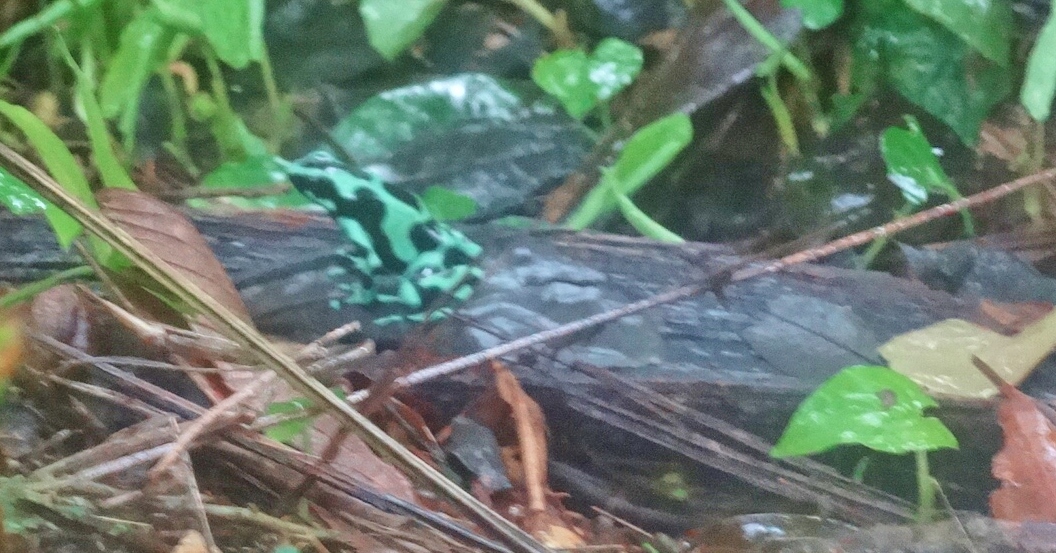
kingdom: Animalia
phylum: Chordata
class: Amphibia
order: Anura
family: Dendrobatidae
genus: Dendrobates
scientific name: Dendrobates auratus
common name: Green and black poison dart frog
